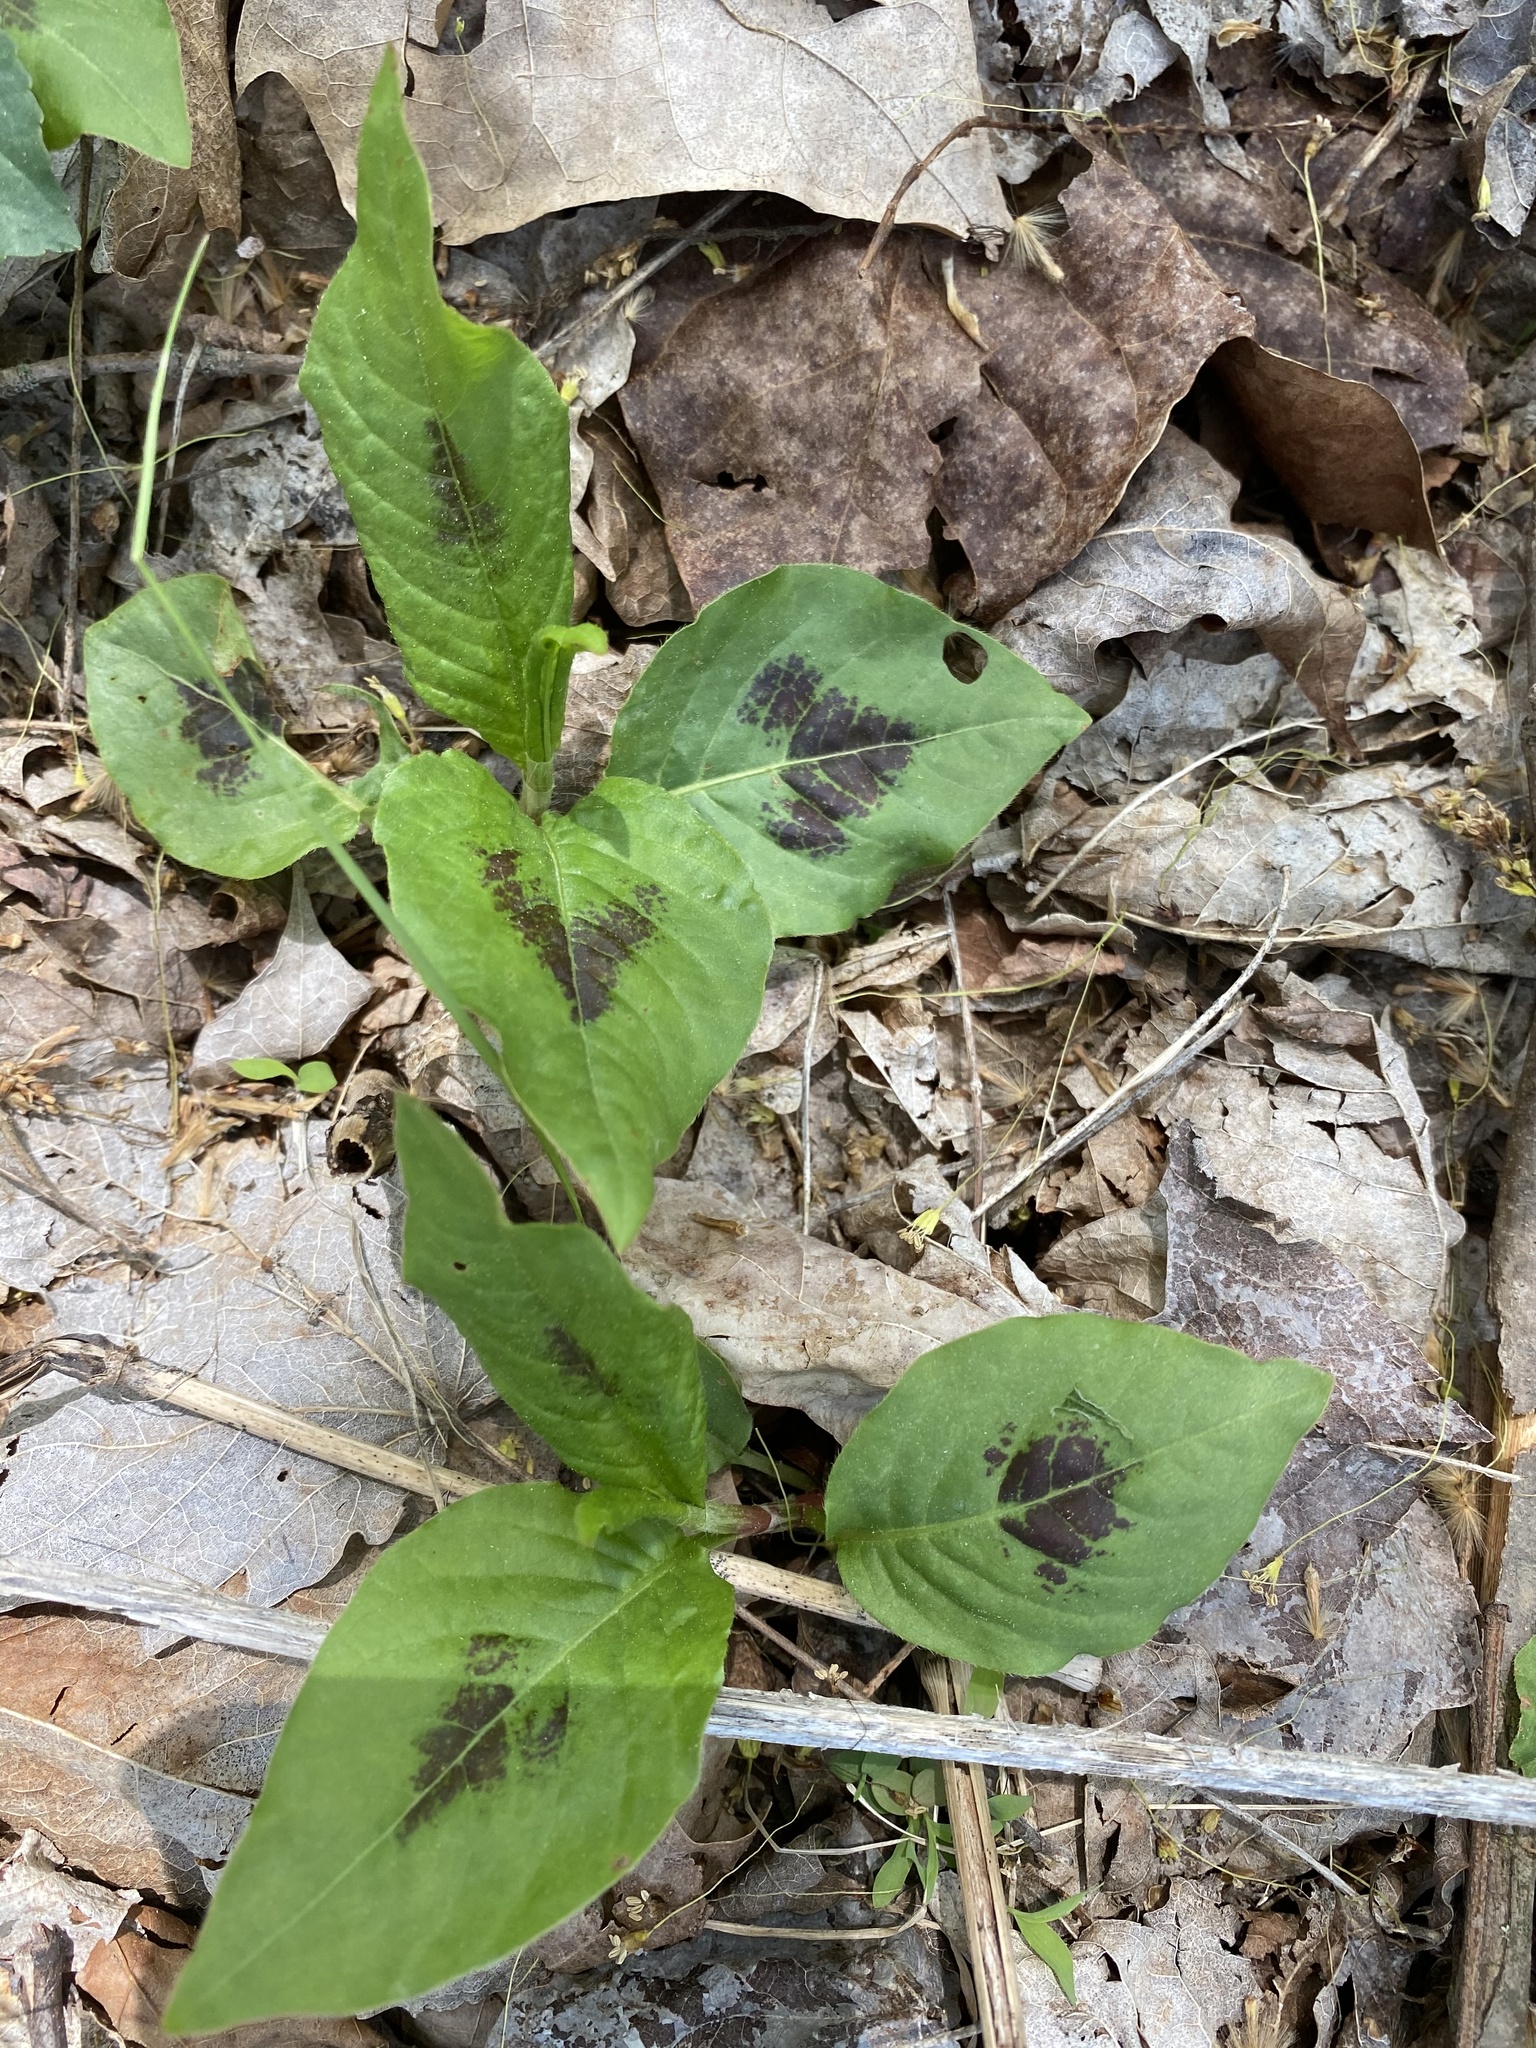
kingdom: Plantae
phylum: Tracheophyta
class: Magnoliopsida
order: Caryophyllales
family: Polygonaceae
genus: Persicaria
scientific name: Persicaria virginiana
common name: Jumpseed
